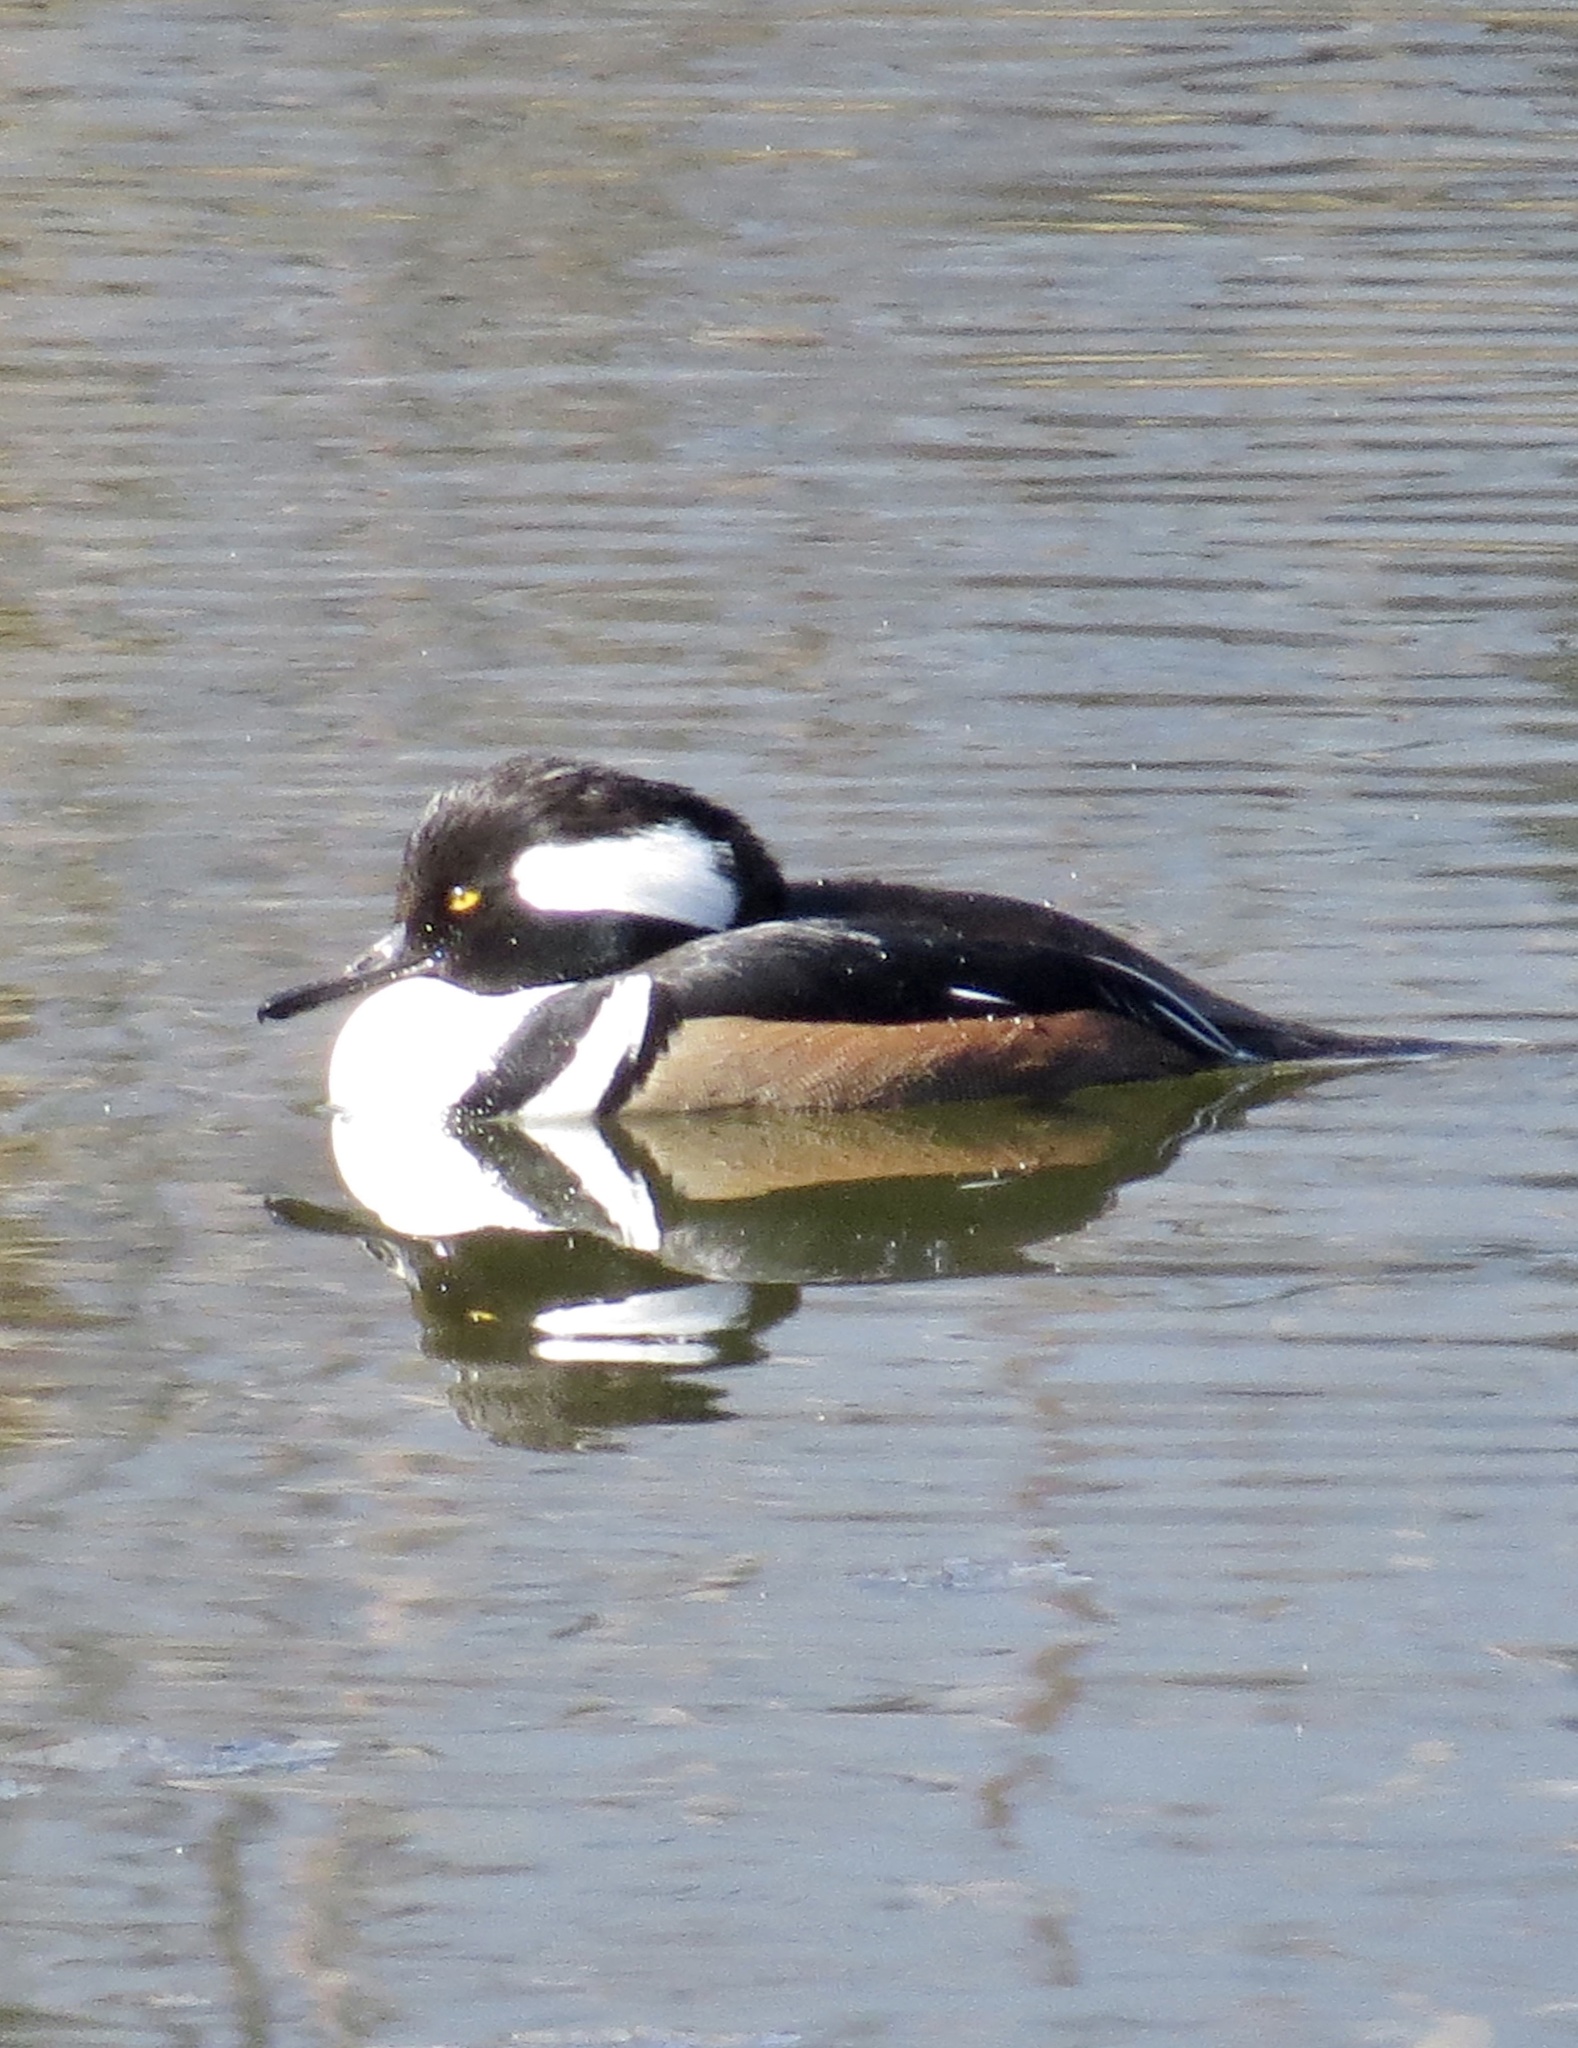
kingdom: Animalia
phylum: Chordata
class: Aves
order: Anseriformes
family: Anatidae
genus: Lophodytes
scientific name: Lophodytes cucullatus
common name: Hooded merganser
